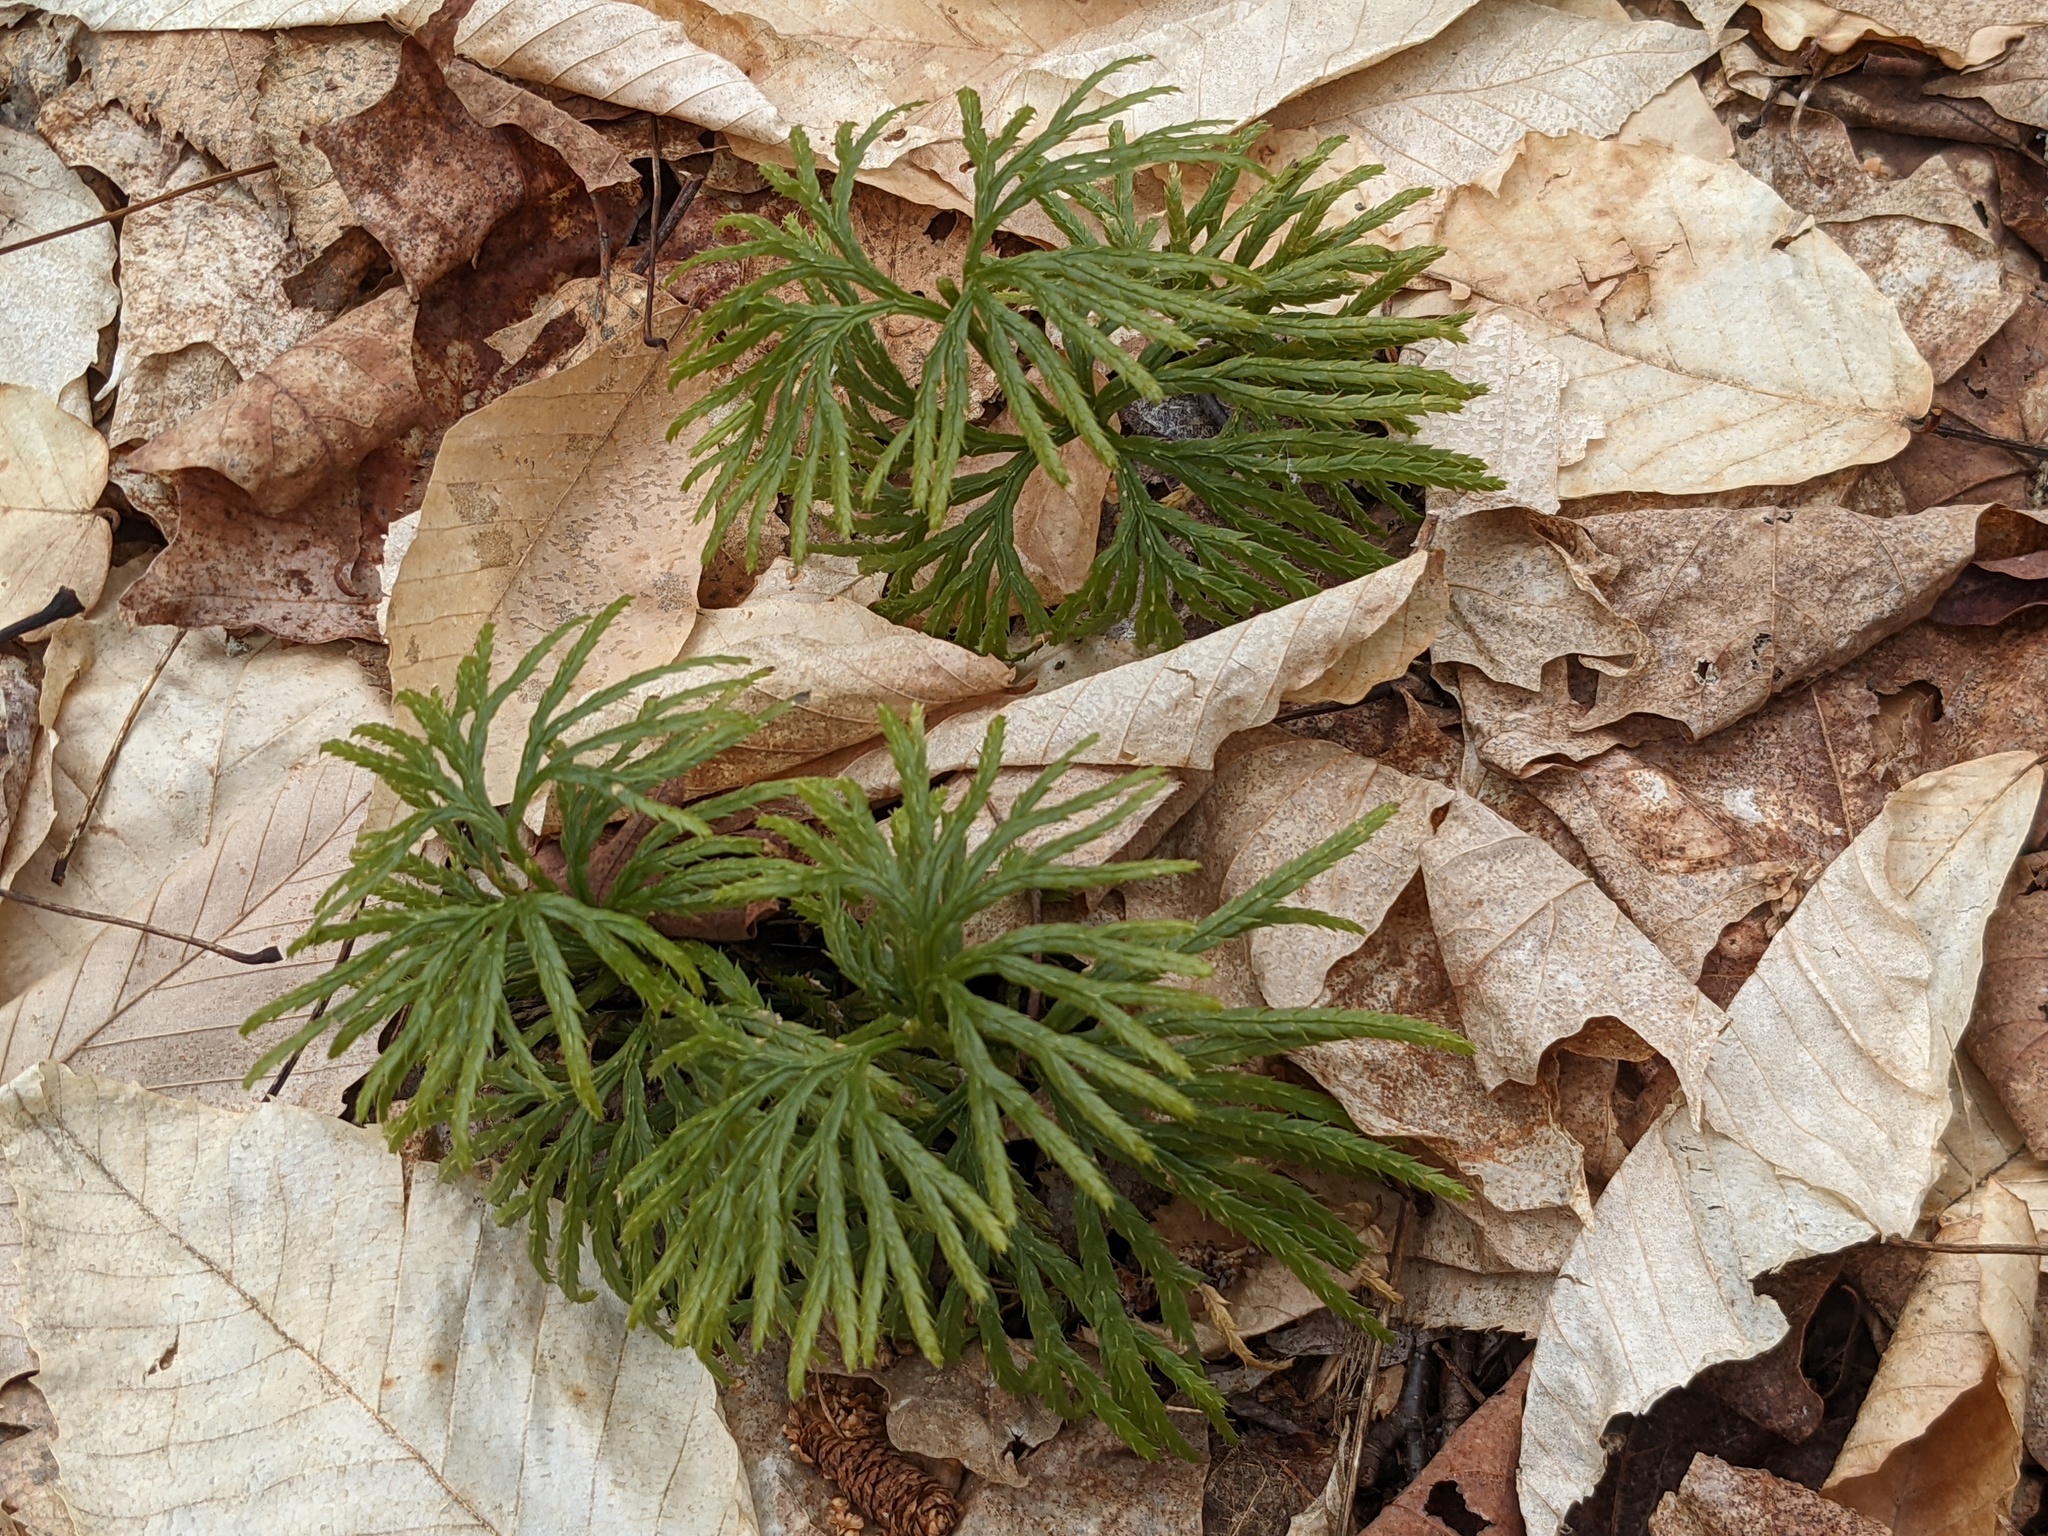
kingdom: Plantae
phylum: Tracheophyta
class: Lycopodiopsida
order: Lycopodiales
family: Lycopodiaceae
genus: Diphasiastrum
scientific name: Diphasiastrum digitatum
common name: Southern running-pine
